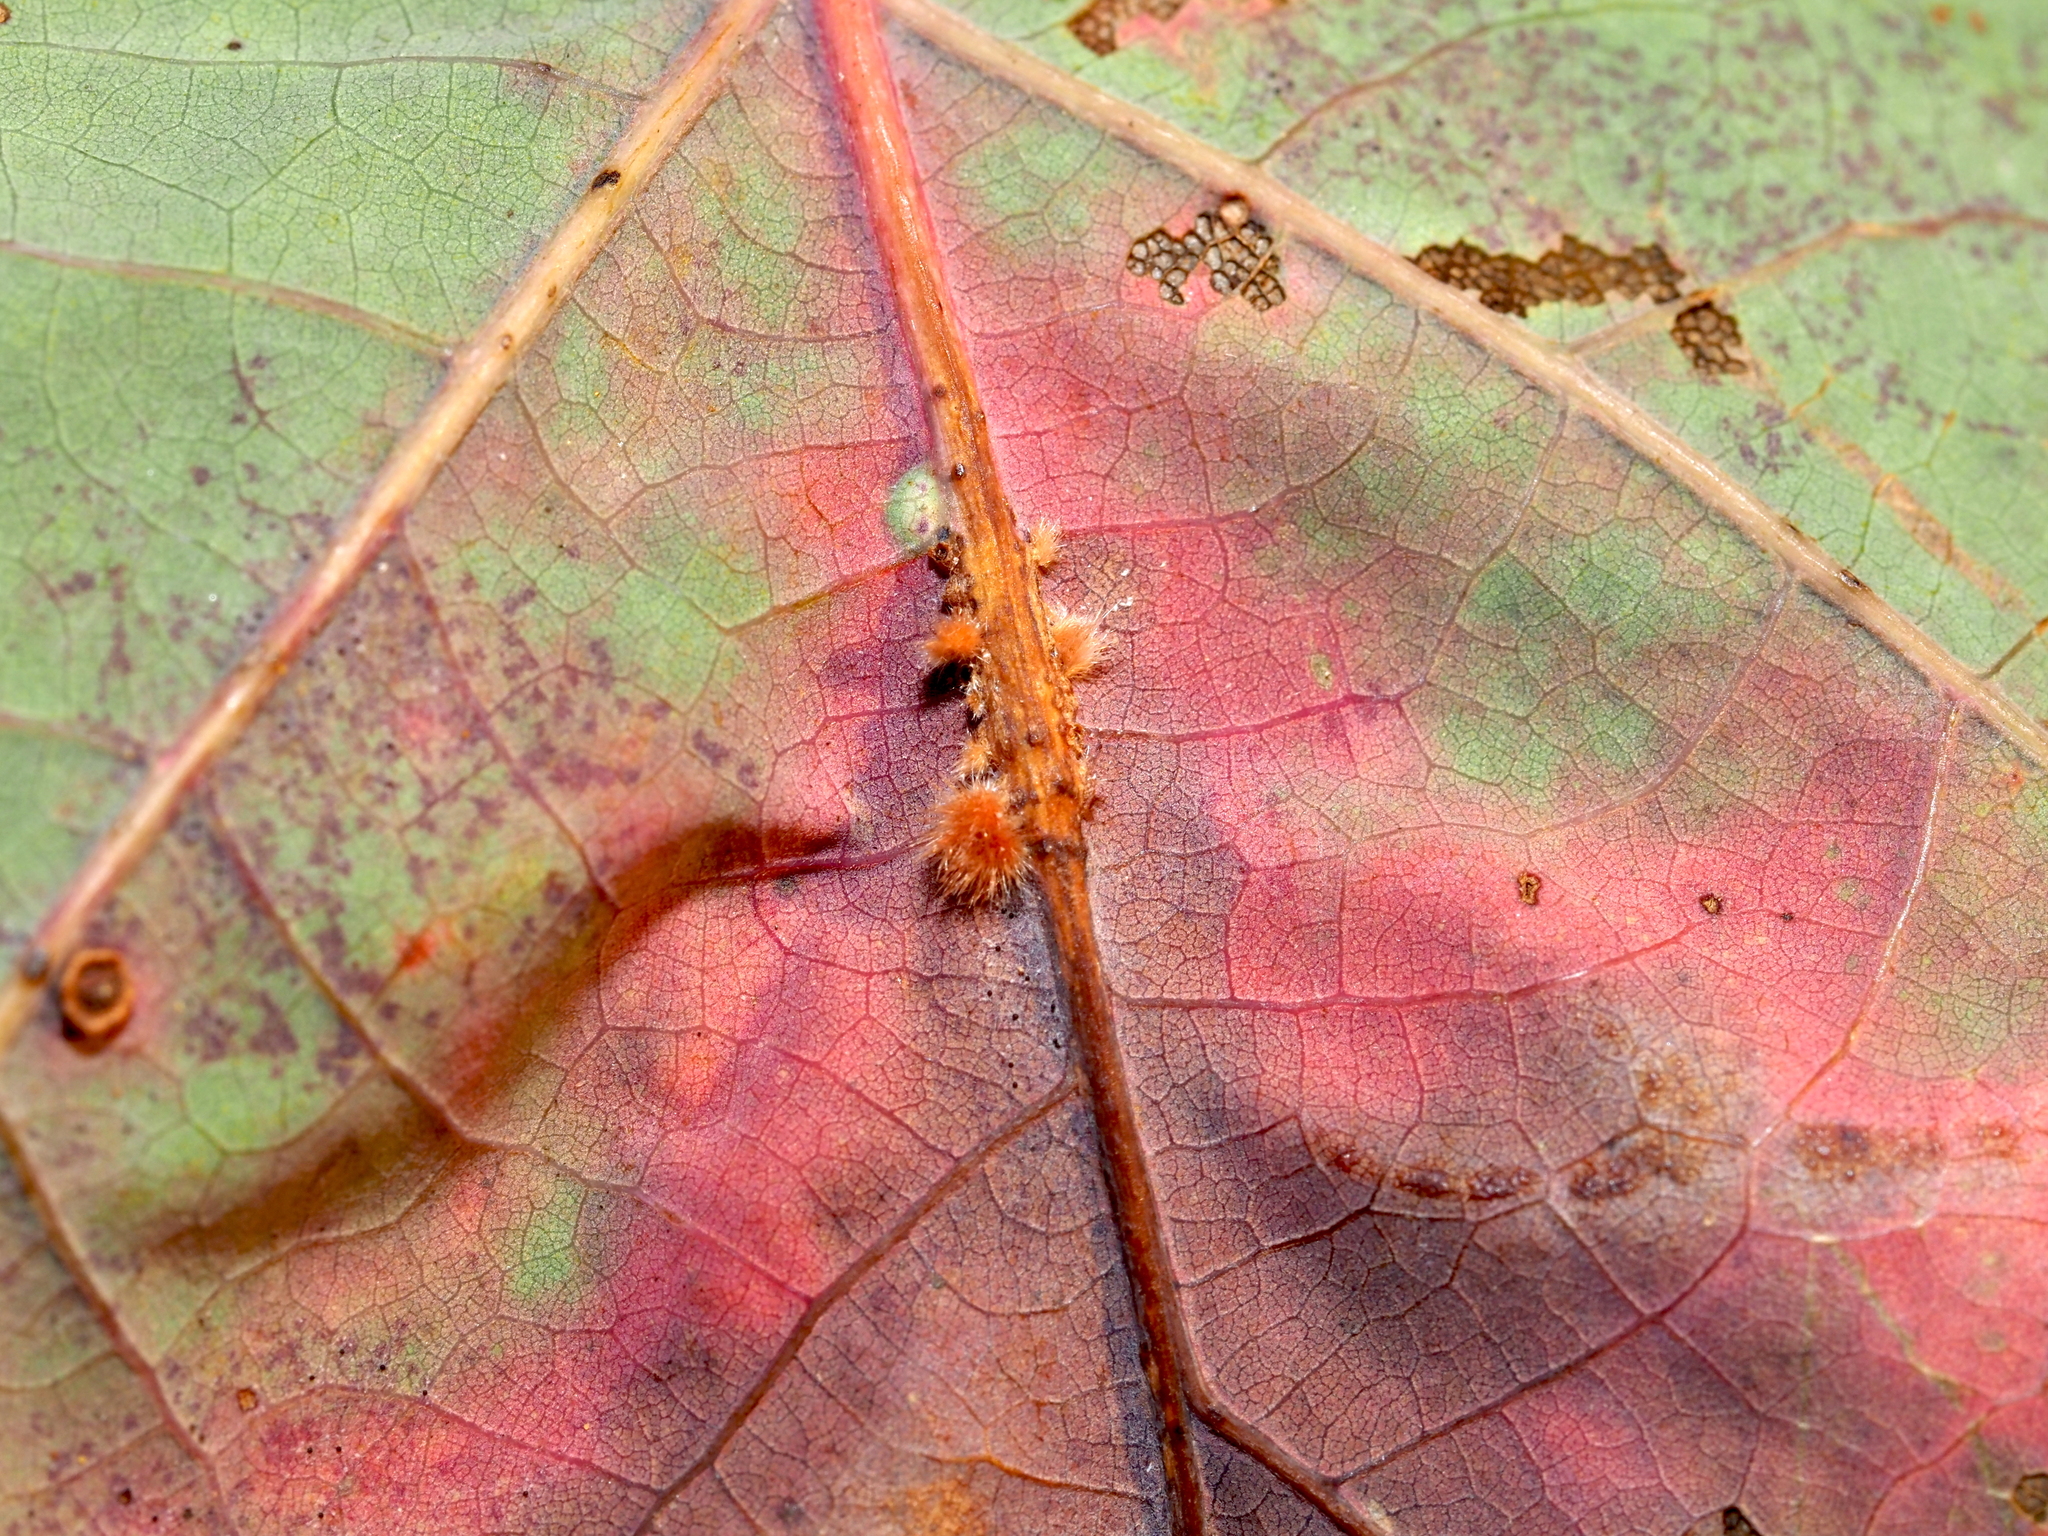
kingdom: Animalia
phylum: Arthropoda
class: Insecta
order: Hymenoptera
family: Cynipidae
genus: Andricus
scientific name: Andricus
